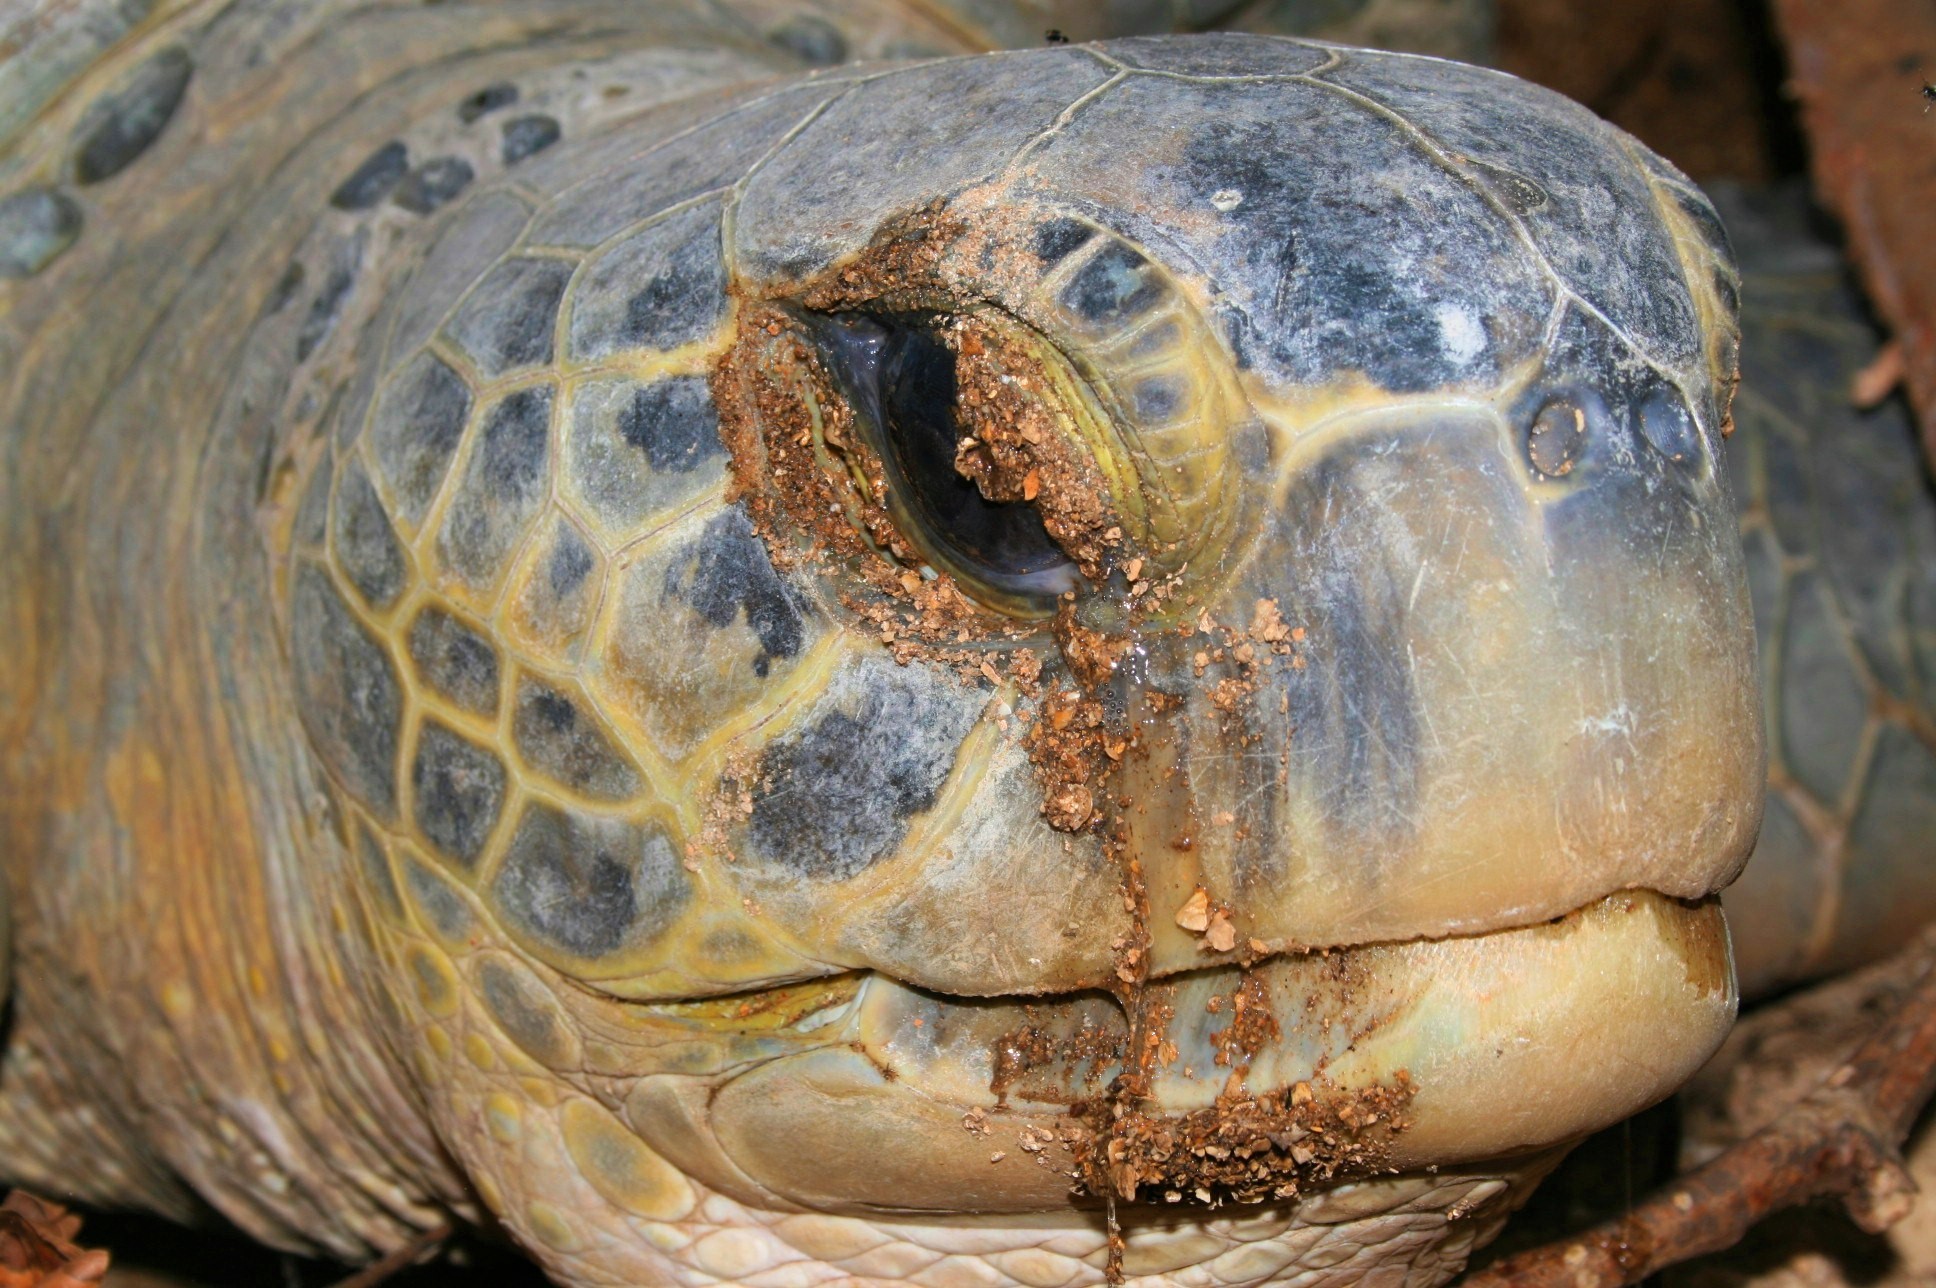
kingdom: Animalia
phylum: Chordata
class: Testudines
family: Cheloniidae
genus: Chelonia
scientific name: Chelonia mydas
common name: Green turtle
